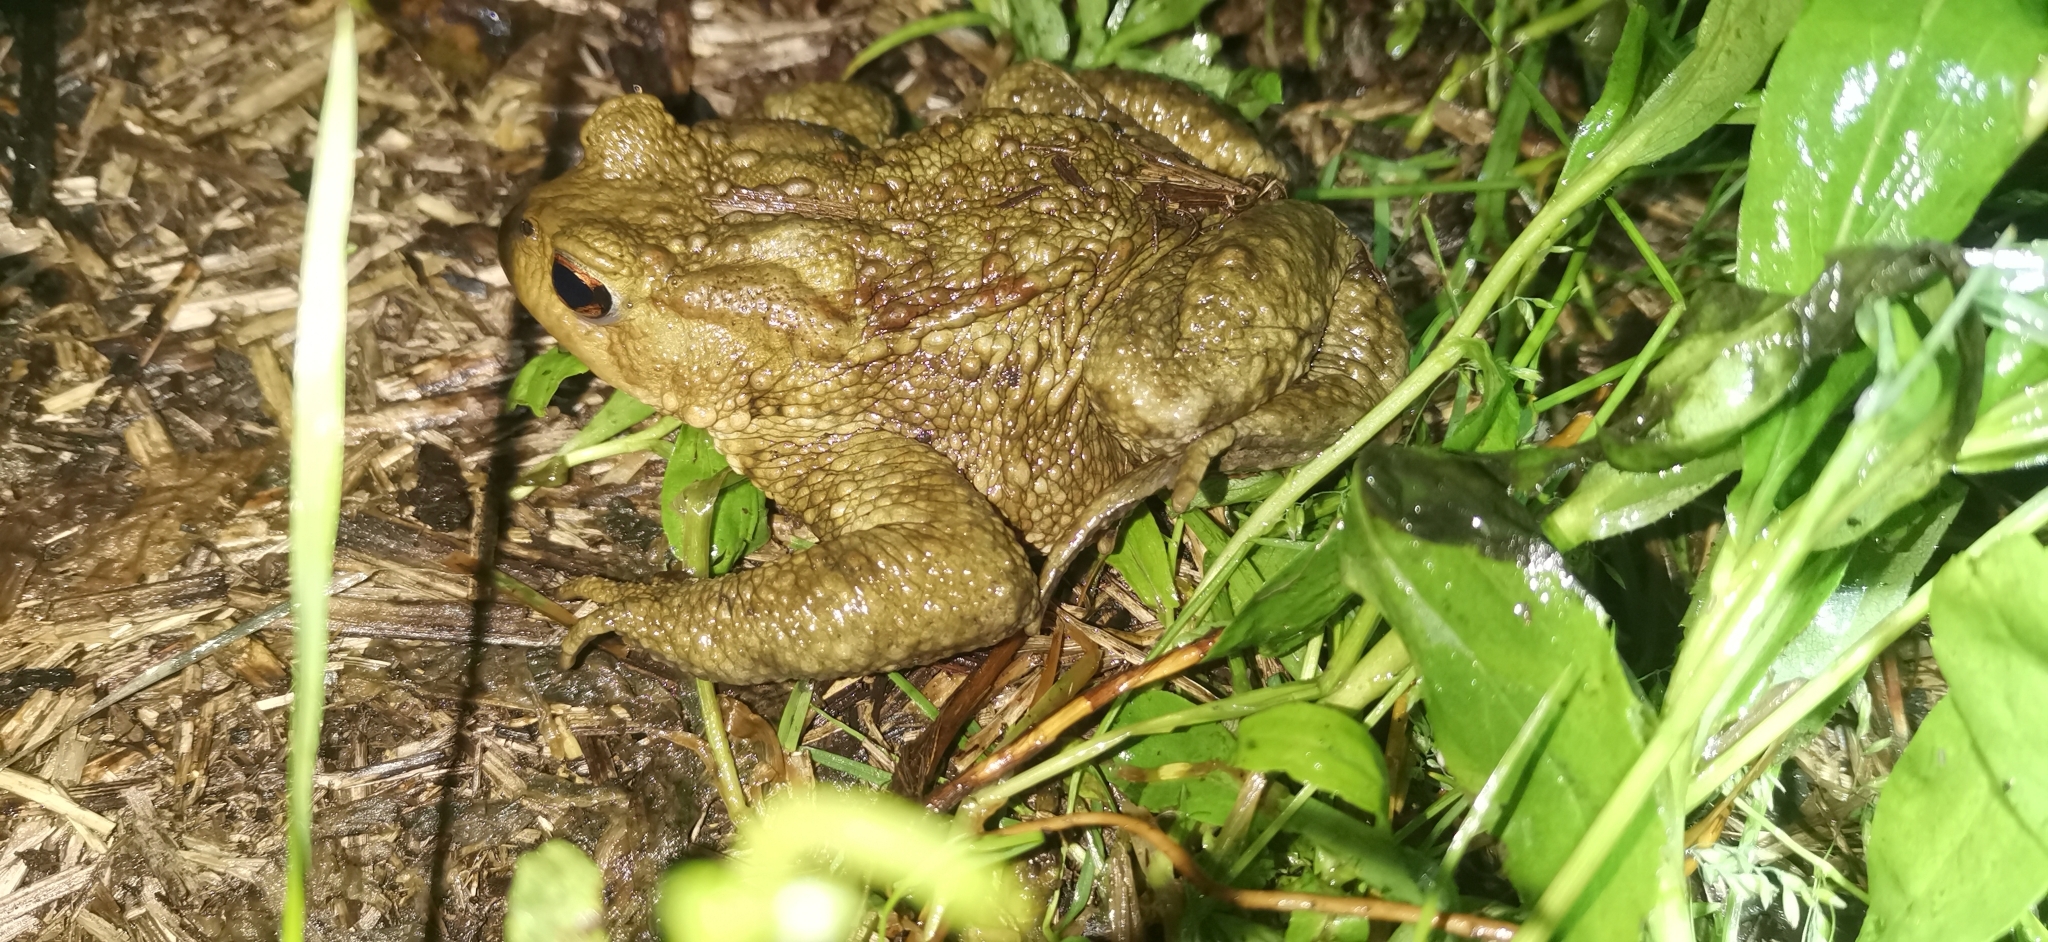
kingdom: Animalia
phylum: Chordata
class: Amphibia
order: Anura
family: Bufonidae
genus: Bufo
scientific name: Bufo bufo
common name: Common toad
